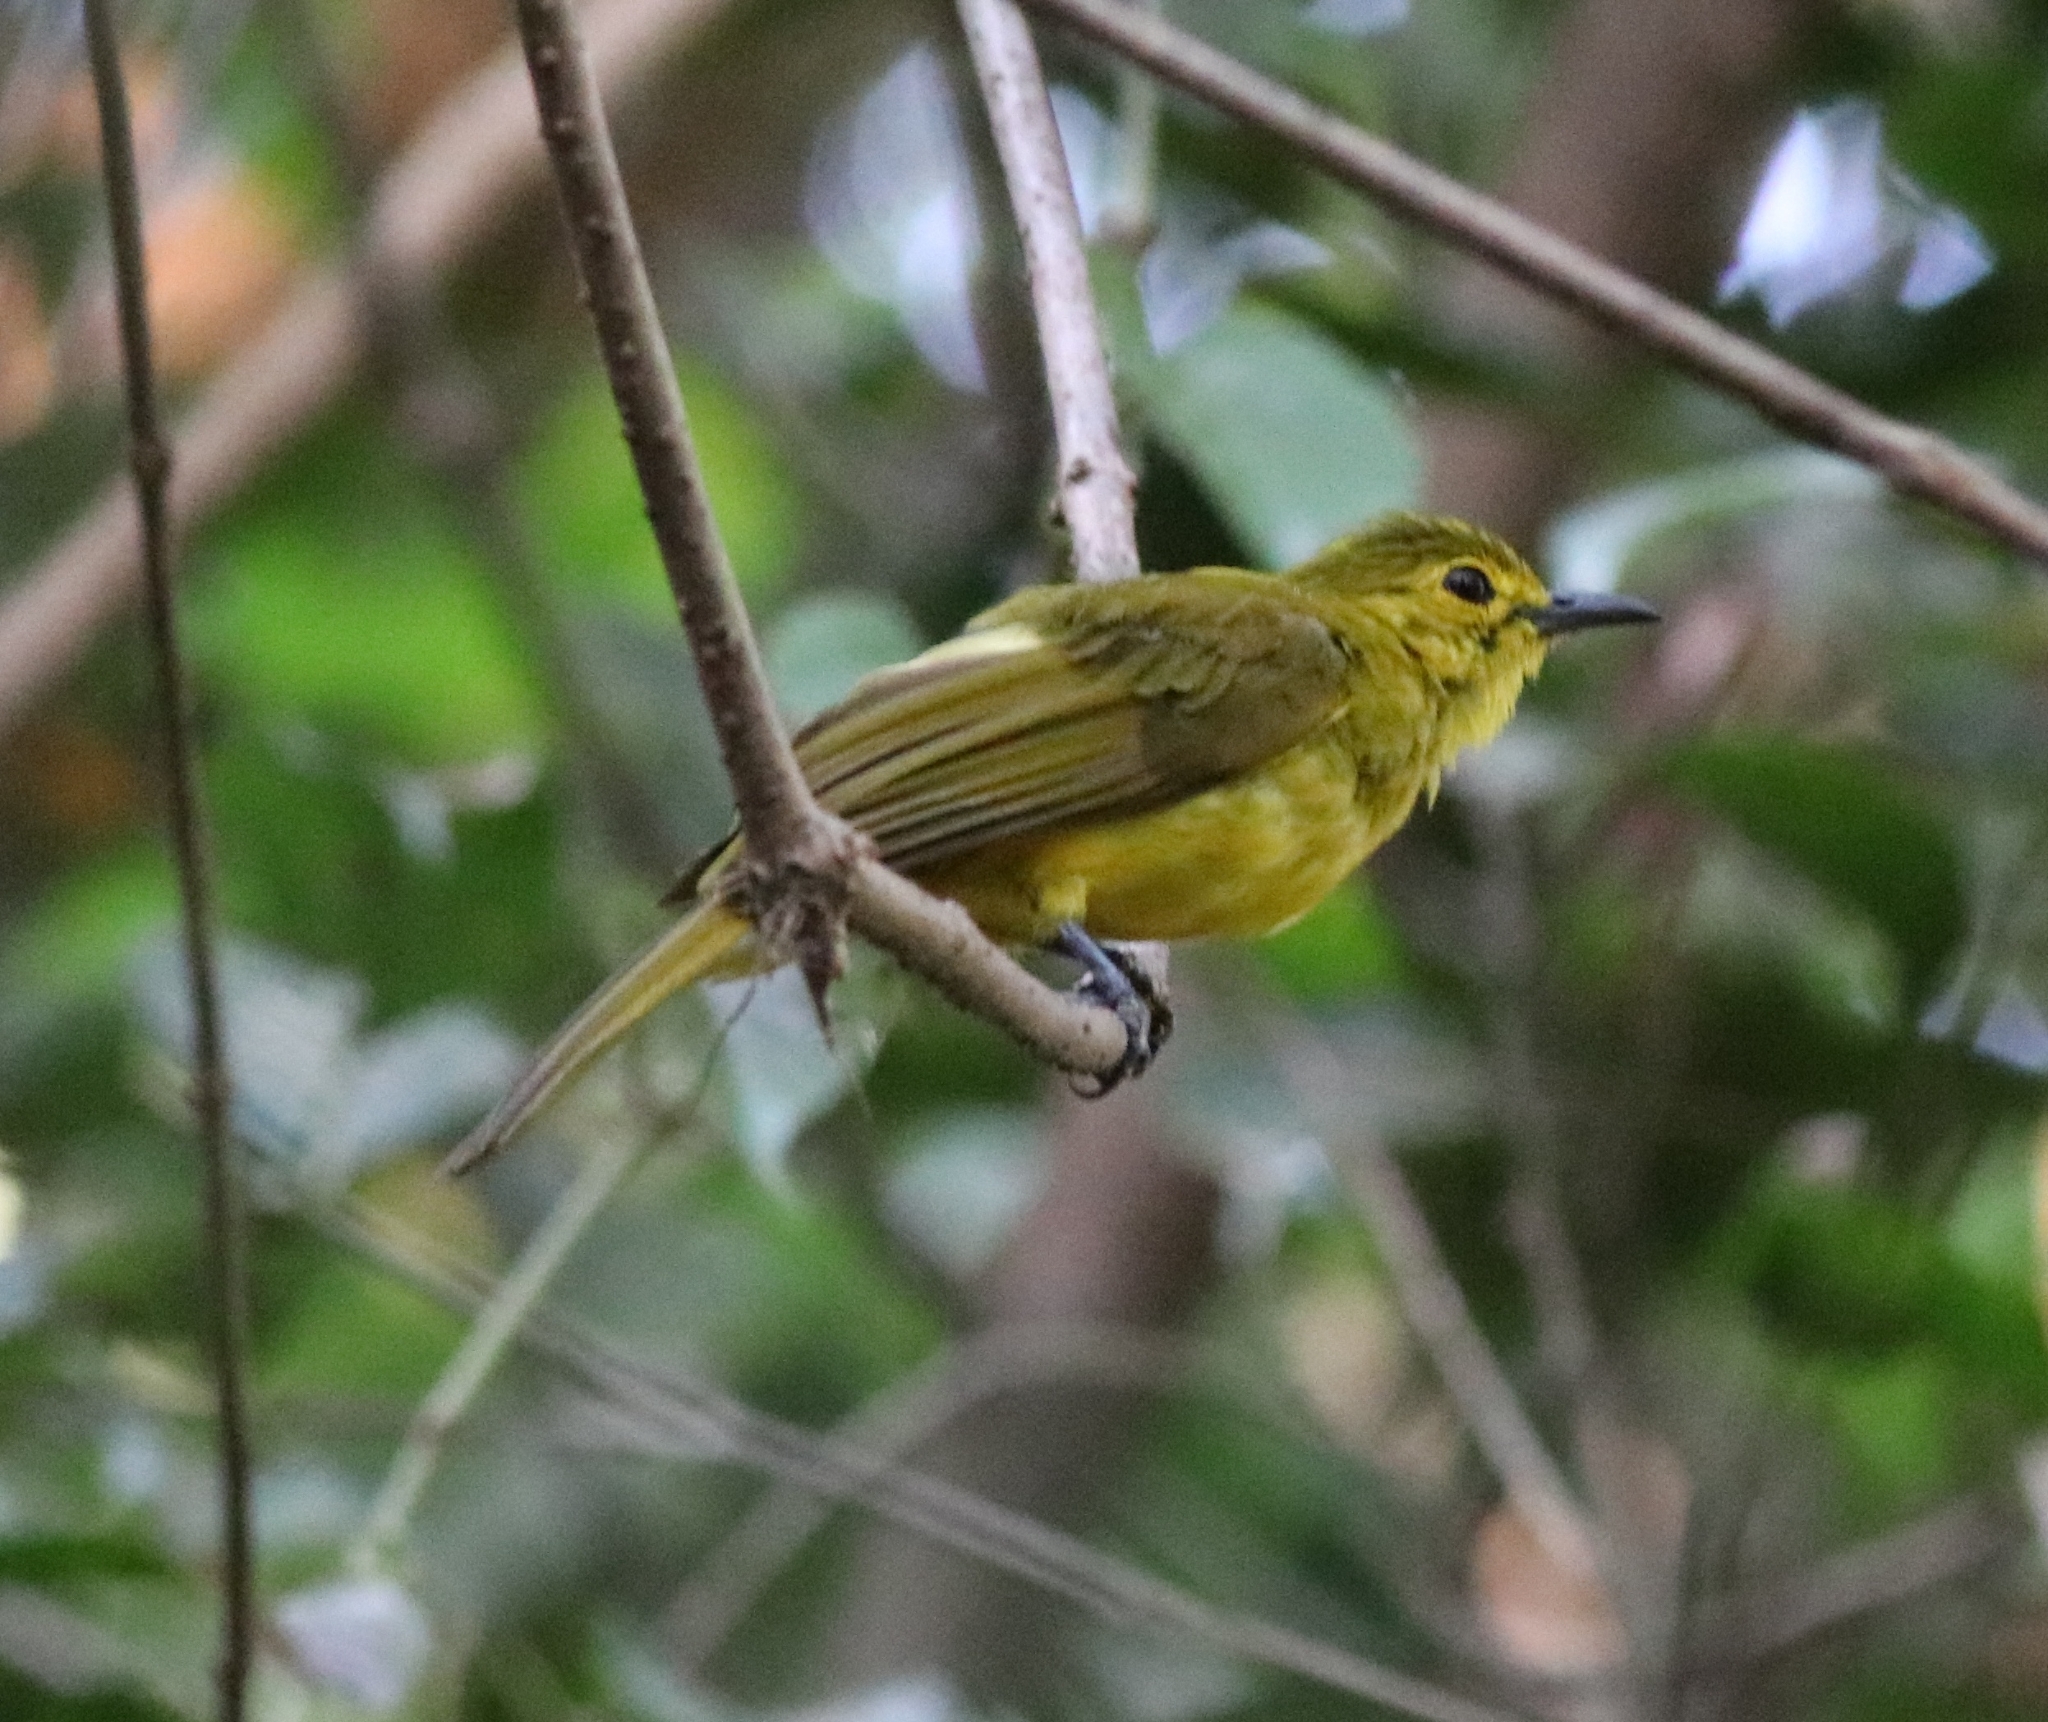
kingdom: Animalia
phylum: Chordata
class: Aves
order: Passeriformes
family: Pycnonotidae
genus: Acritillas
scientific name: Acritillas indica
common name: Yellow-browed bulbul
